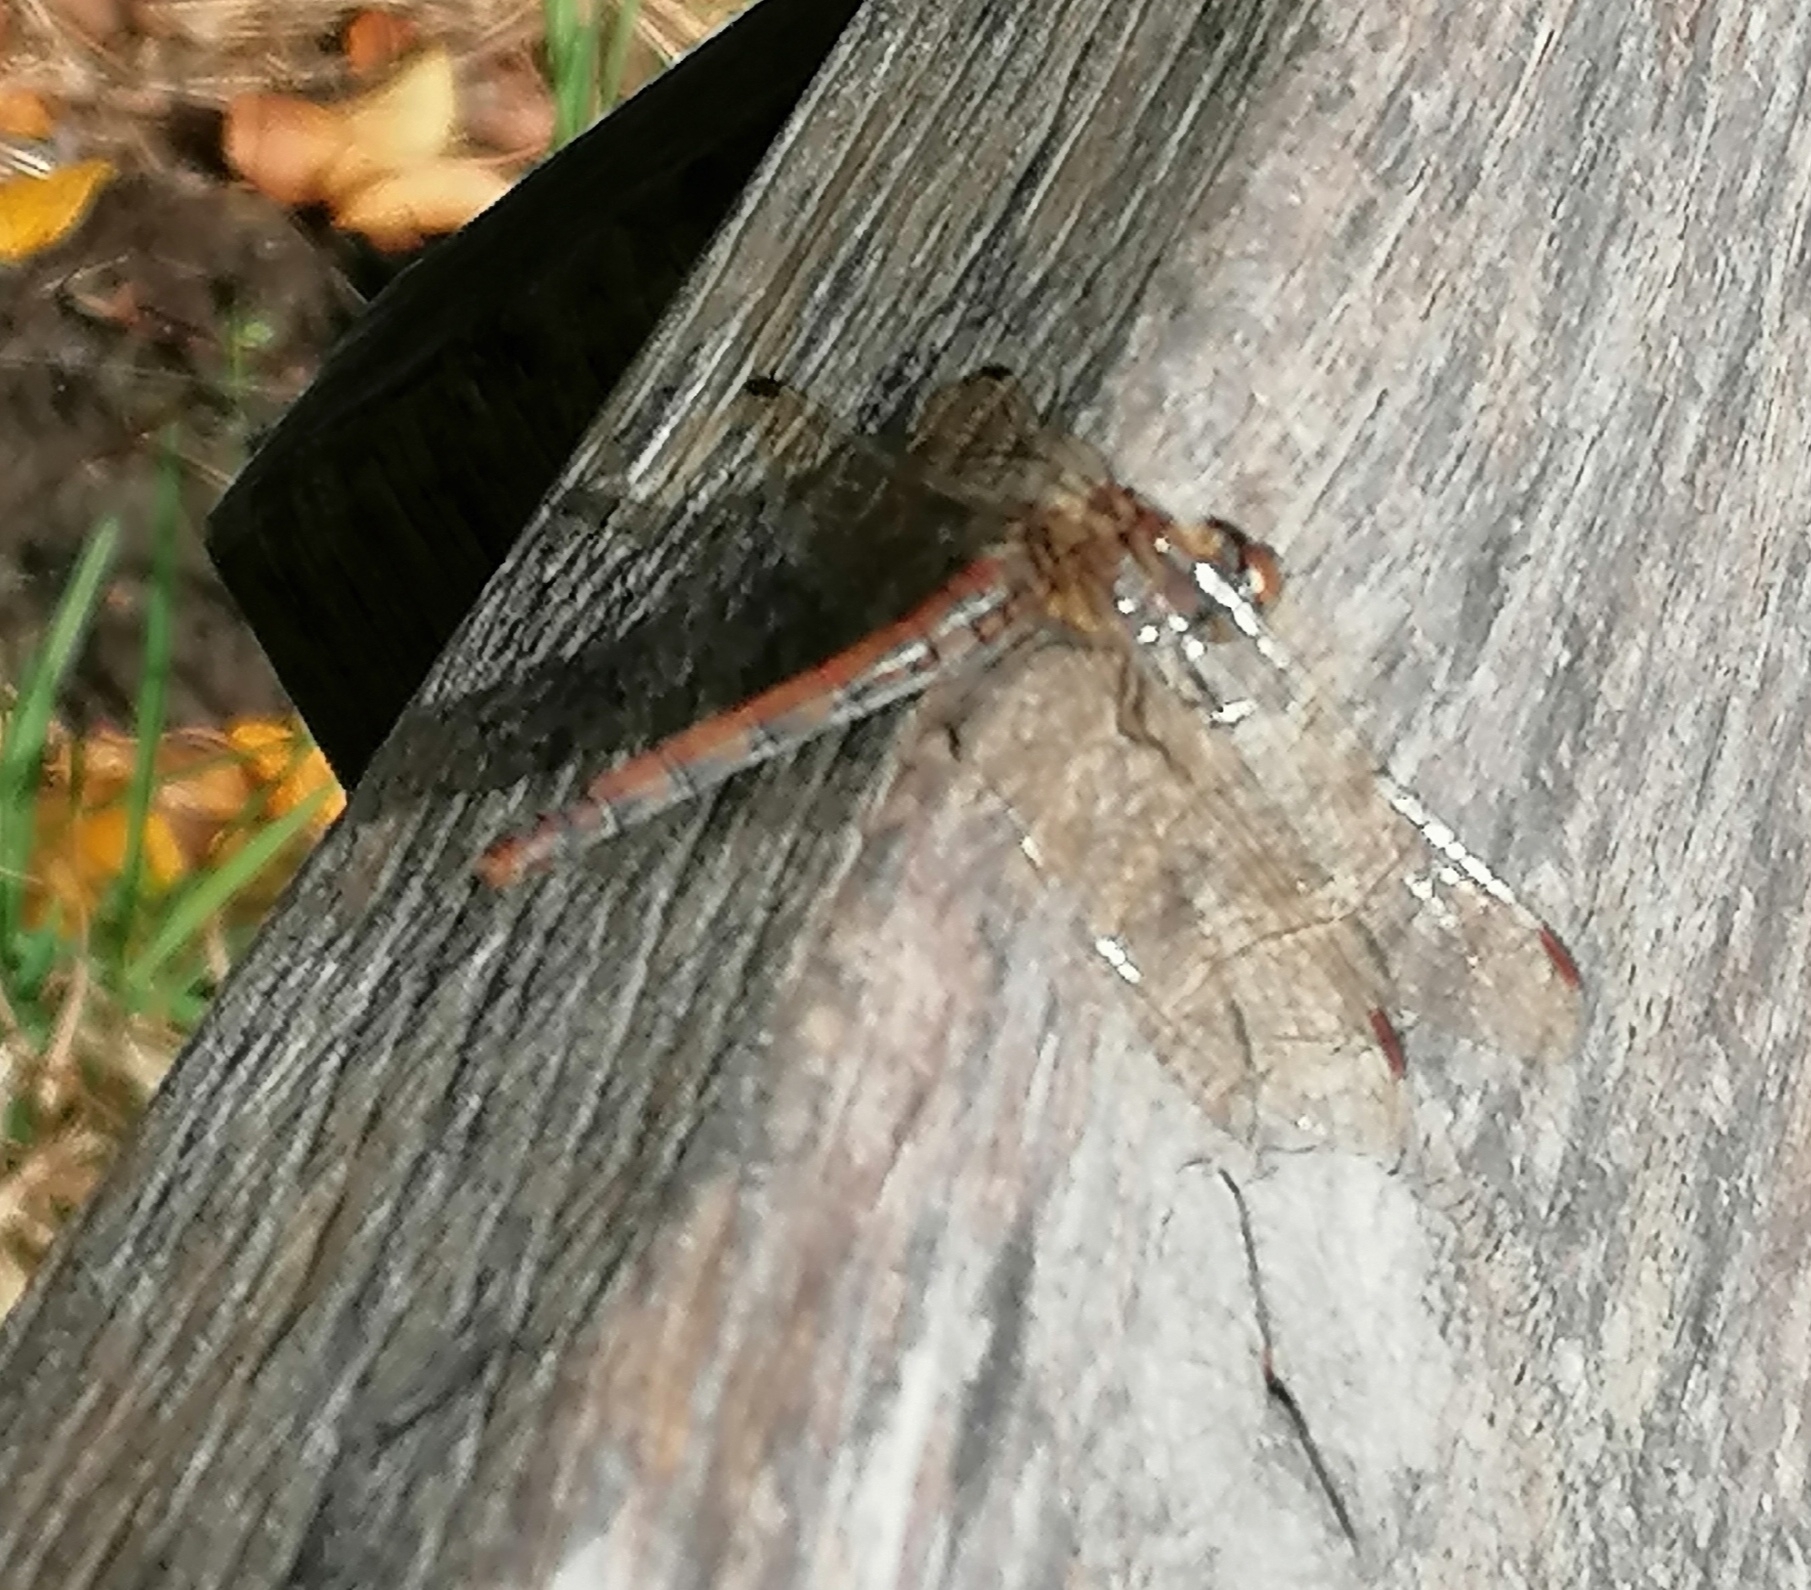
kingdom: Animalia
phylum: Arthropoda
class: Insecta
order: Odonata
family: Libellulidae
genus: Sympetrum
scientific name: Sympetrum striolatum
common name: Common darter
